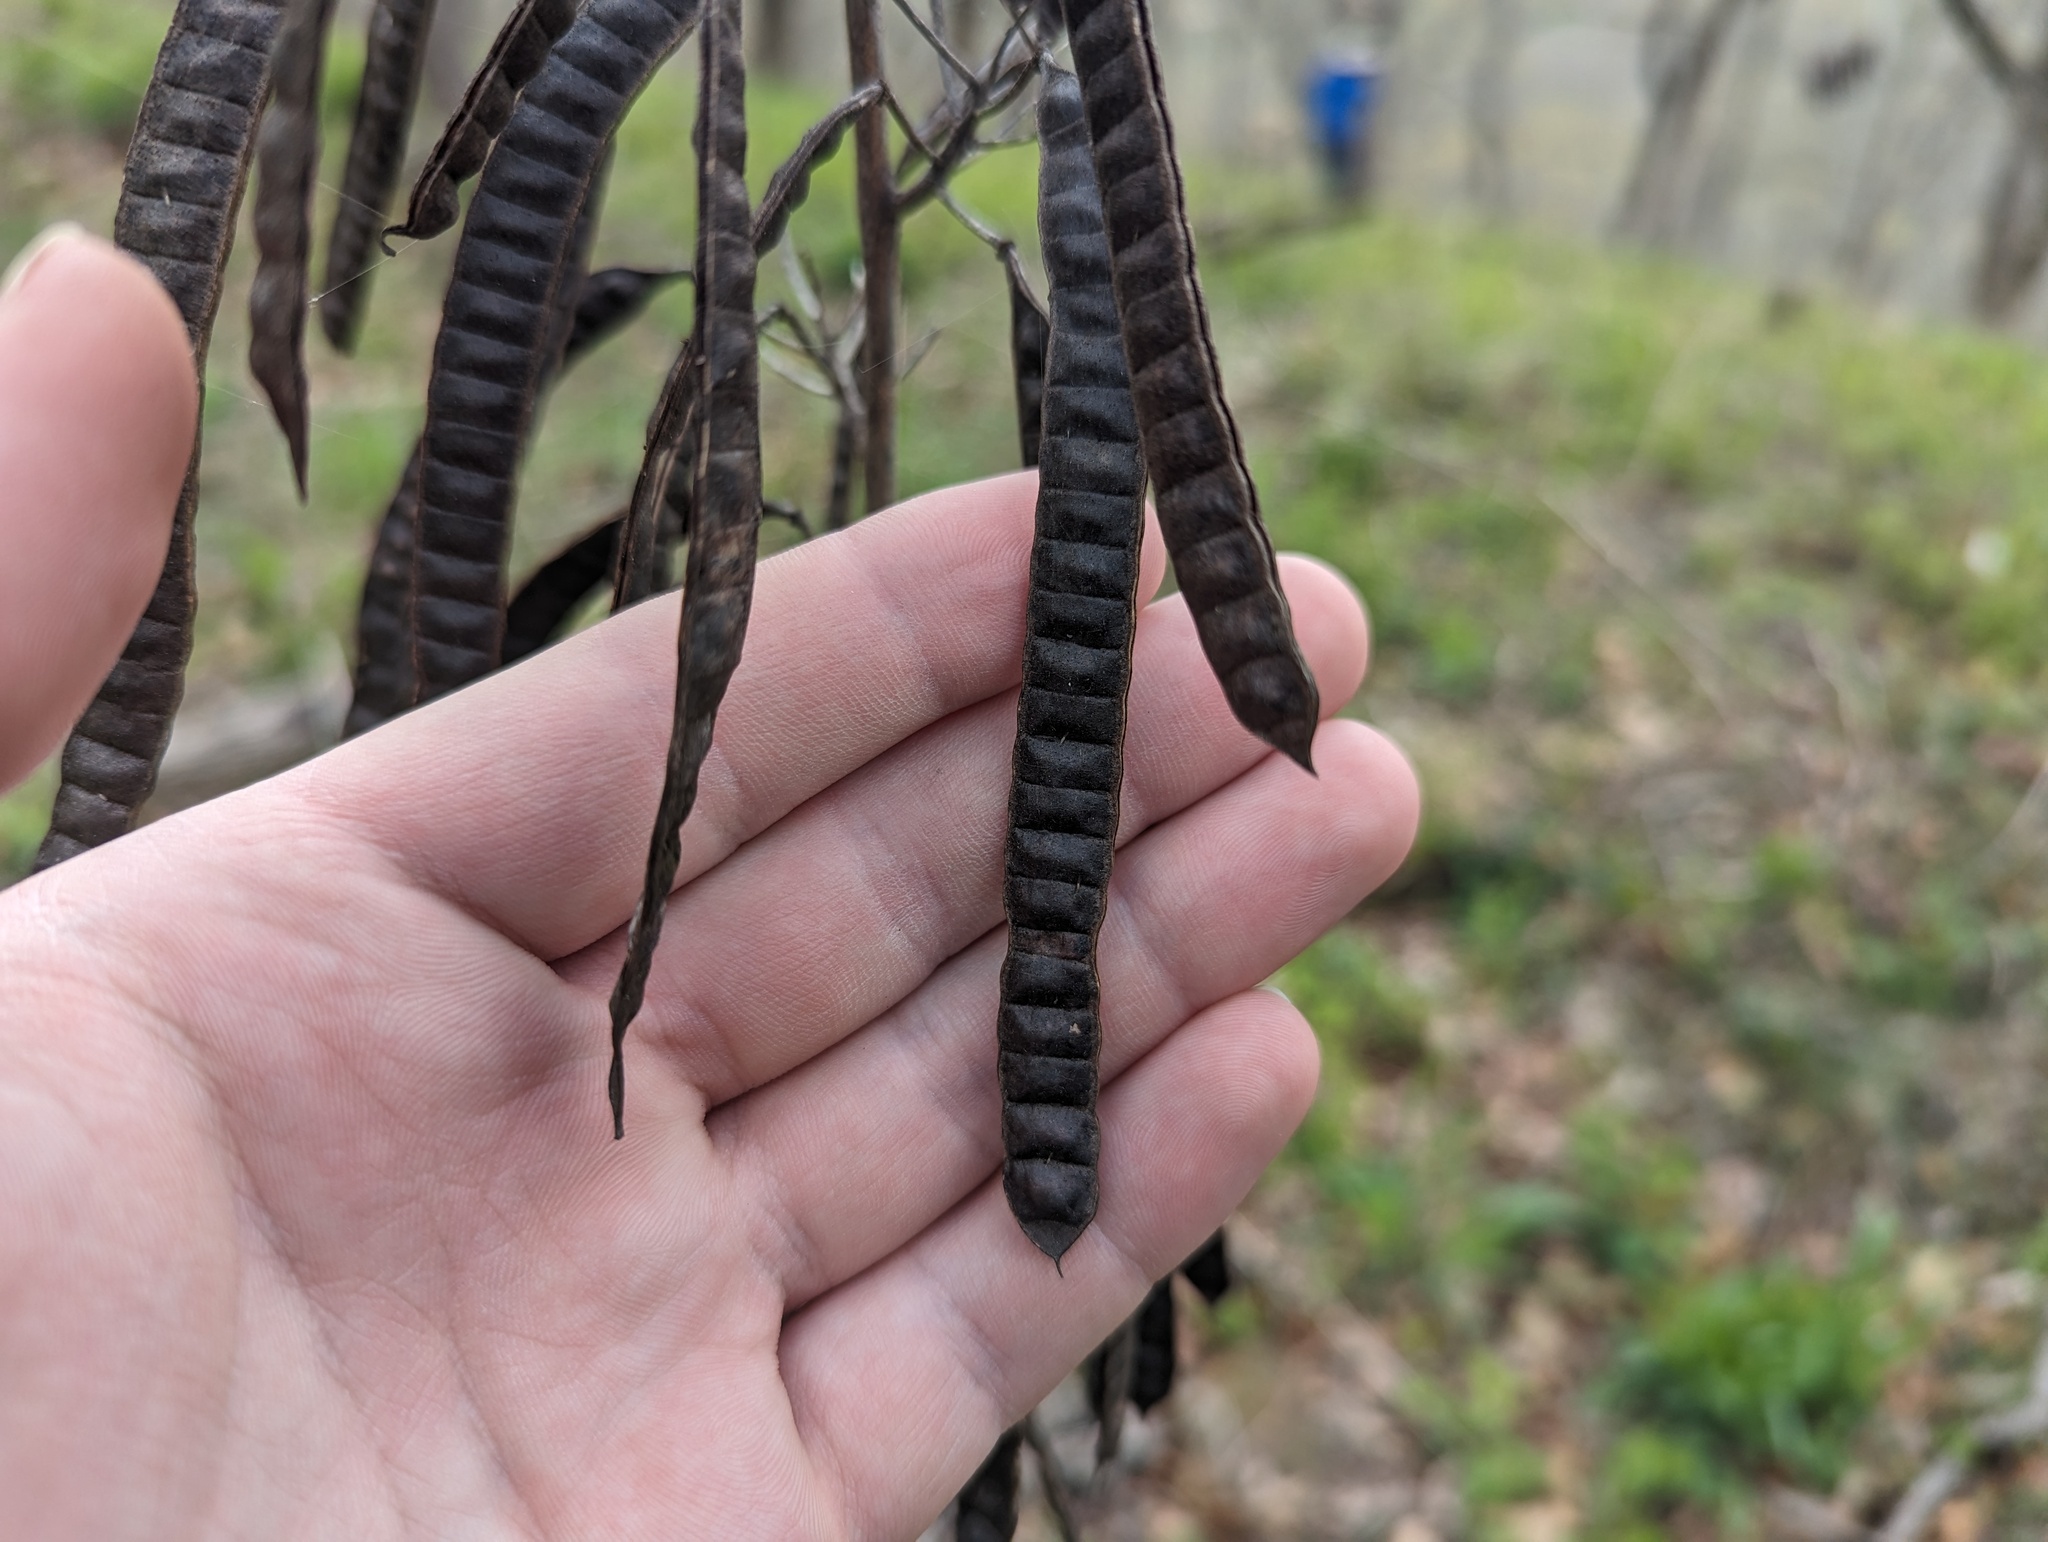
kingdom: Plantae
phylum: Tracheophyta
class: Magnoliopsida
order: Fabales
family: Fabaceae
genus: Senna
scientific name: Senna marilandica
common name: American senna
